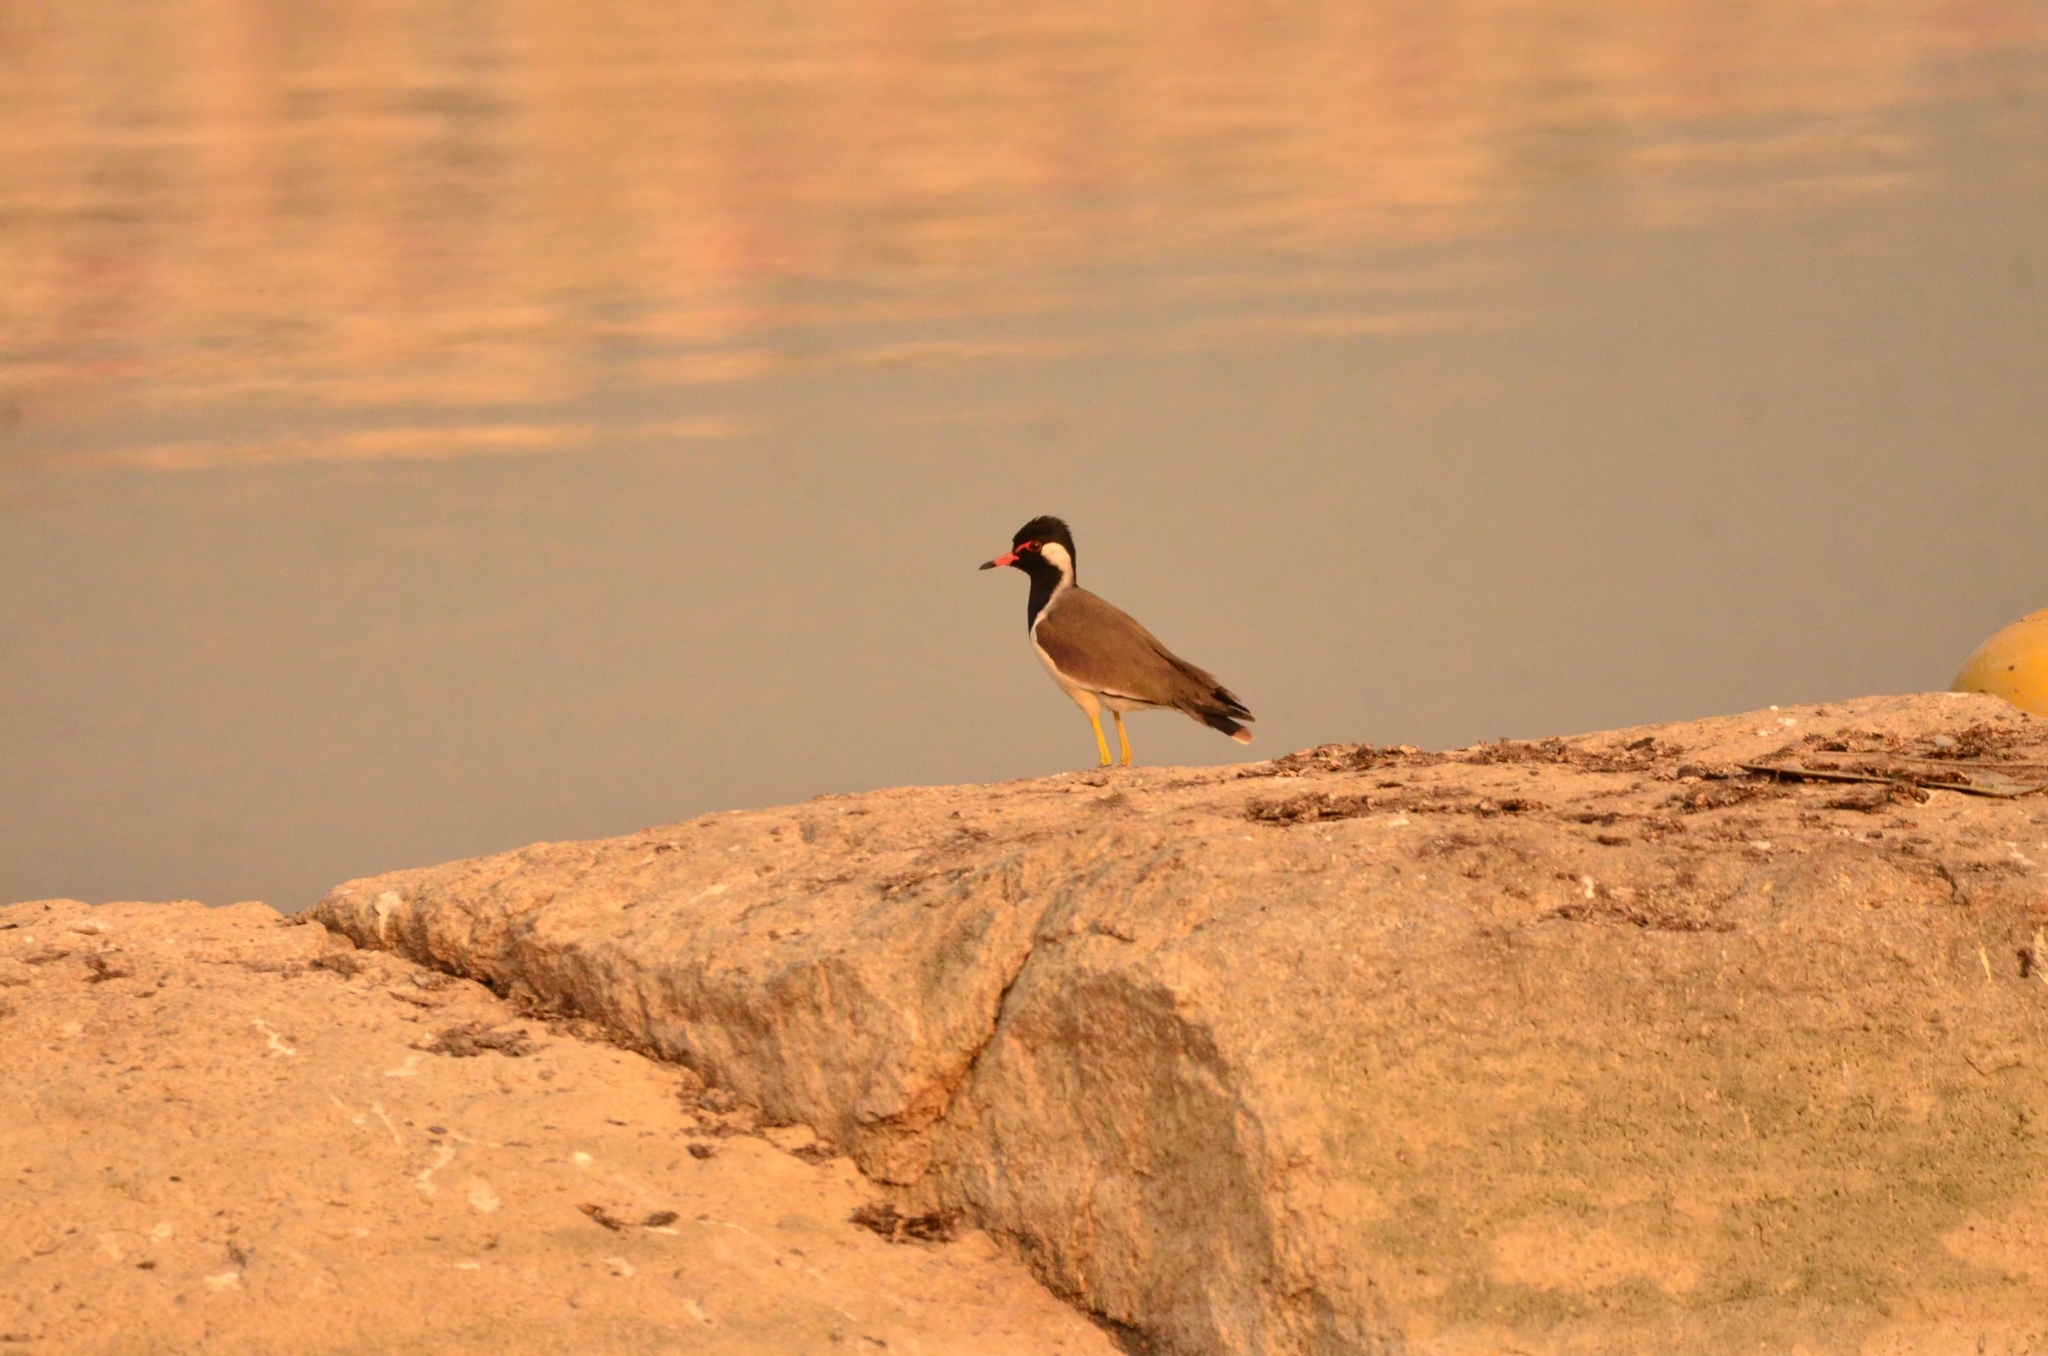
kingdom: Animalia
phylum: Chordata
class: Aves
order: Charadriiformes
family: Charadriidae
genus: Vanellus
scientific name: Vanellus indicus
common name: Red-wattled lapwing
